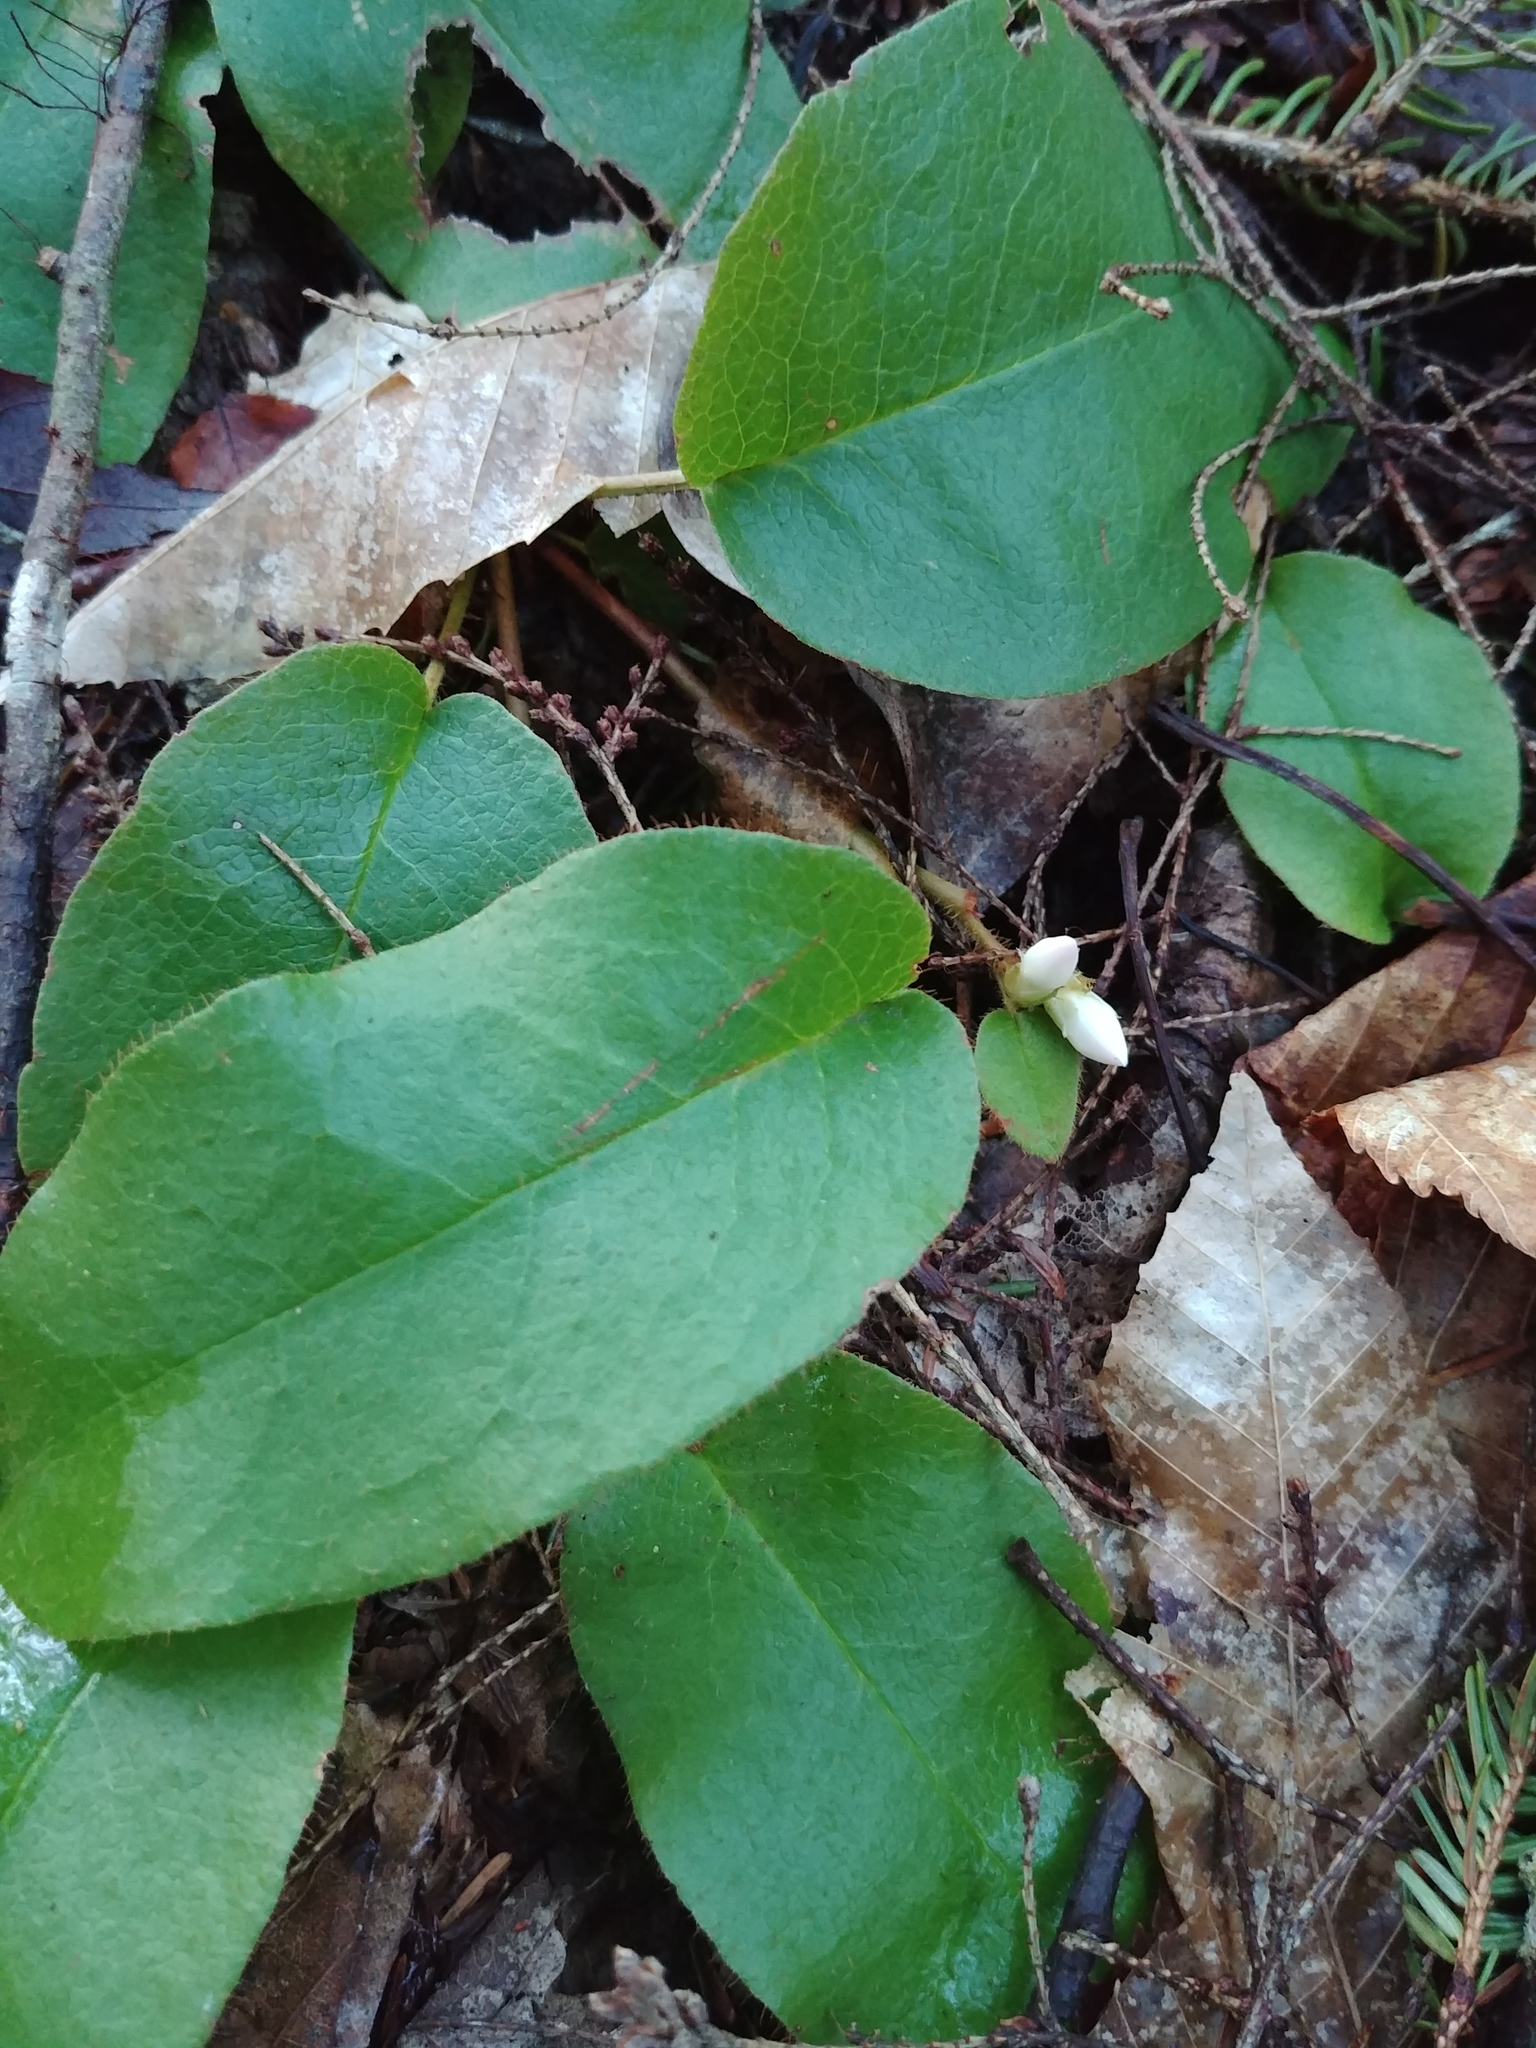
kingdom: Plantae
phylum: Tracheophyta
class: Magnoliopsida
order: Ericales
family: Ericaceae
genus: Epigaea
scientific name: Epigaea repens
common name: Gravelroot
